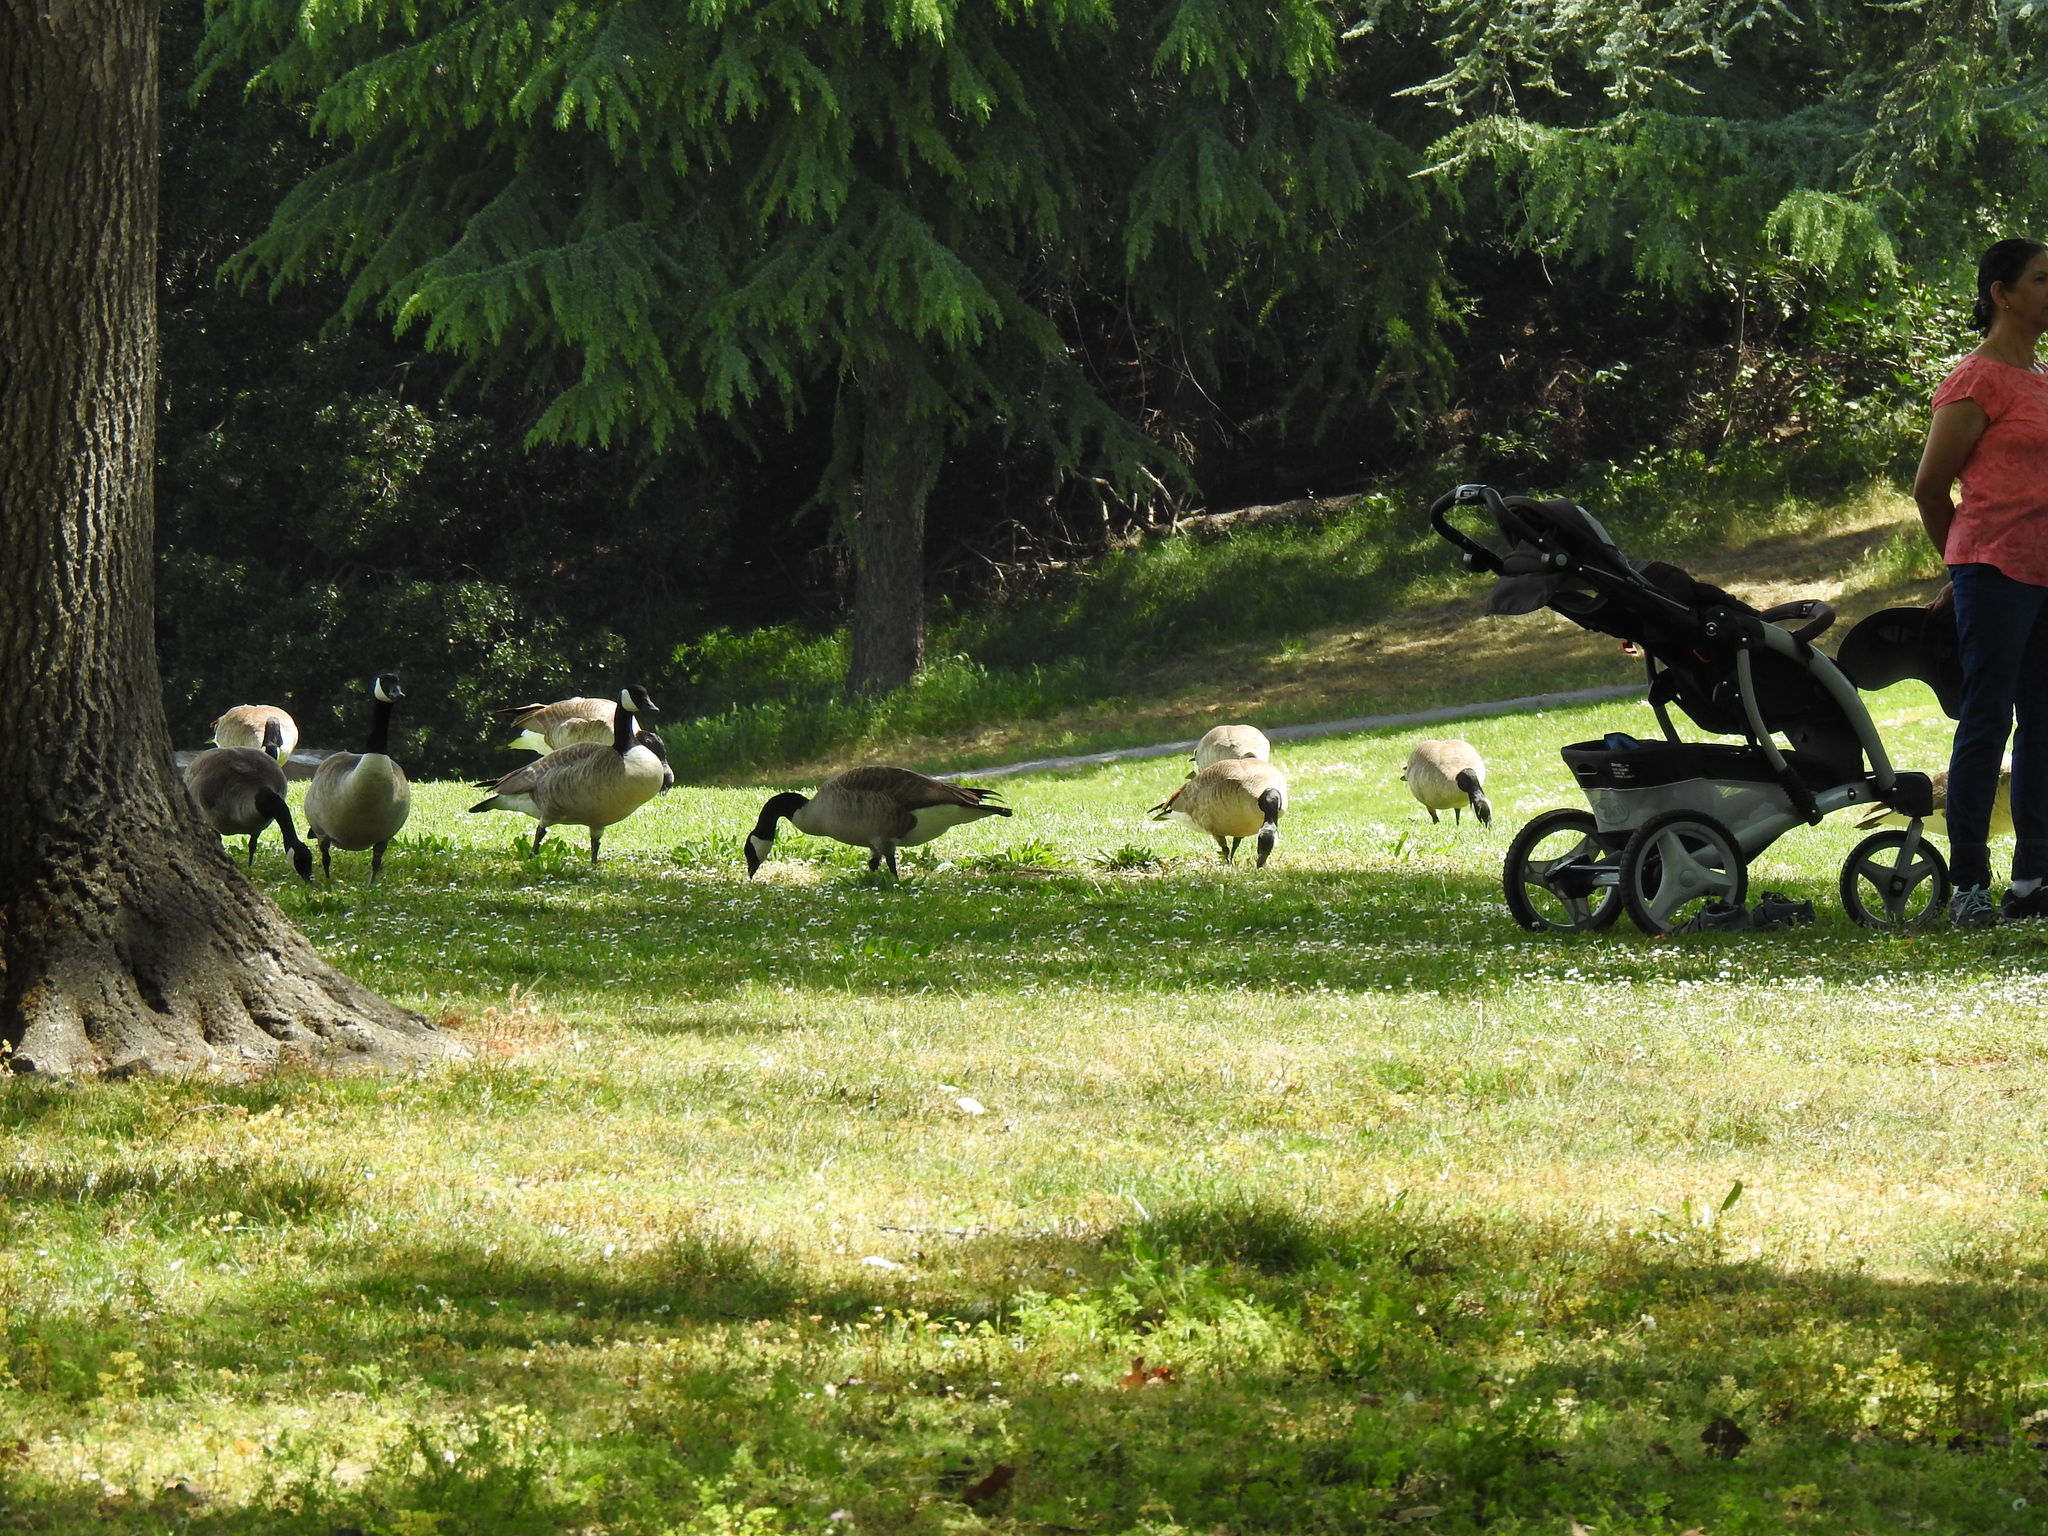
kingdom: Animalia
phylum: Chordata
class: Aves
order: Anseriformes
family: Anatidae
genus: Branta
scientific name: Branta canadensis
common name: Canada goose
